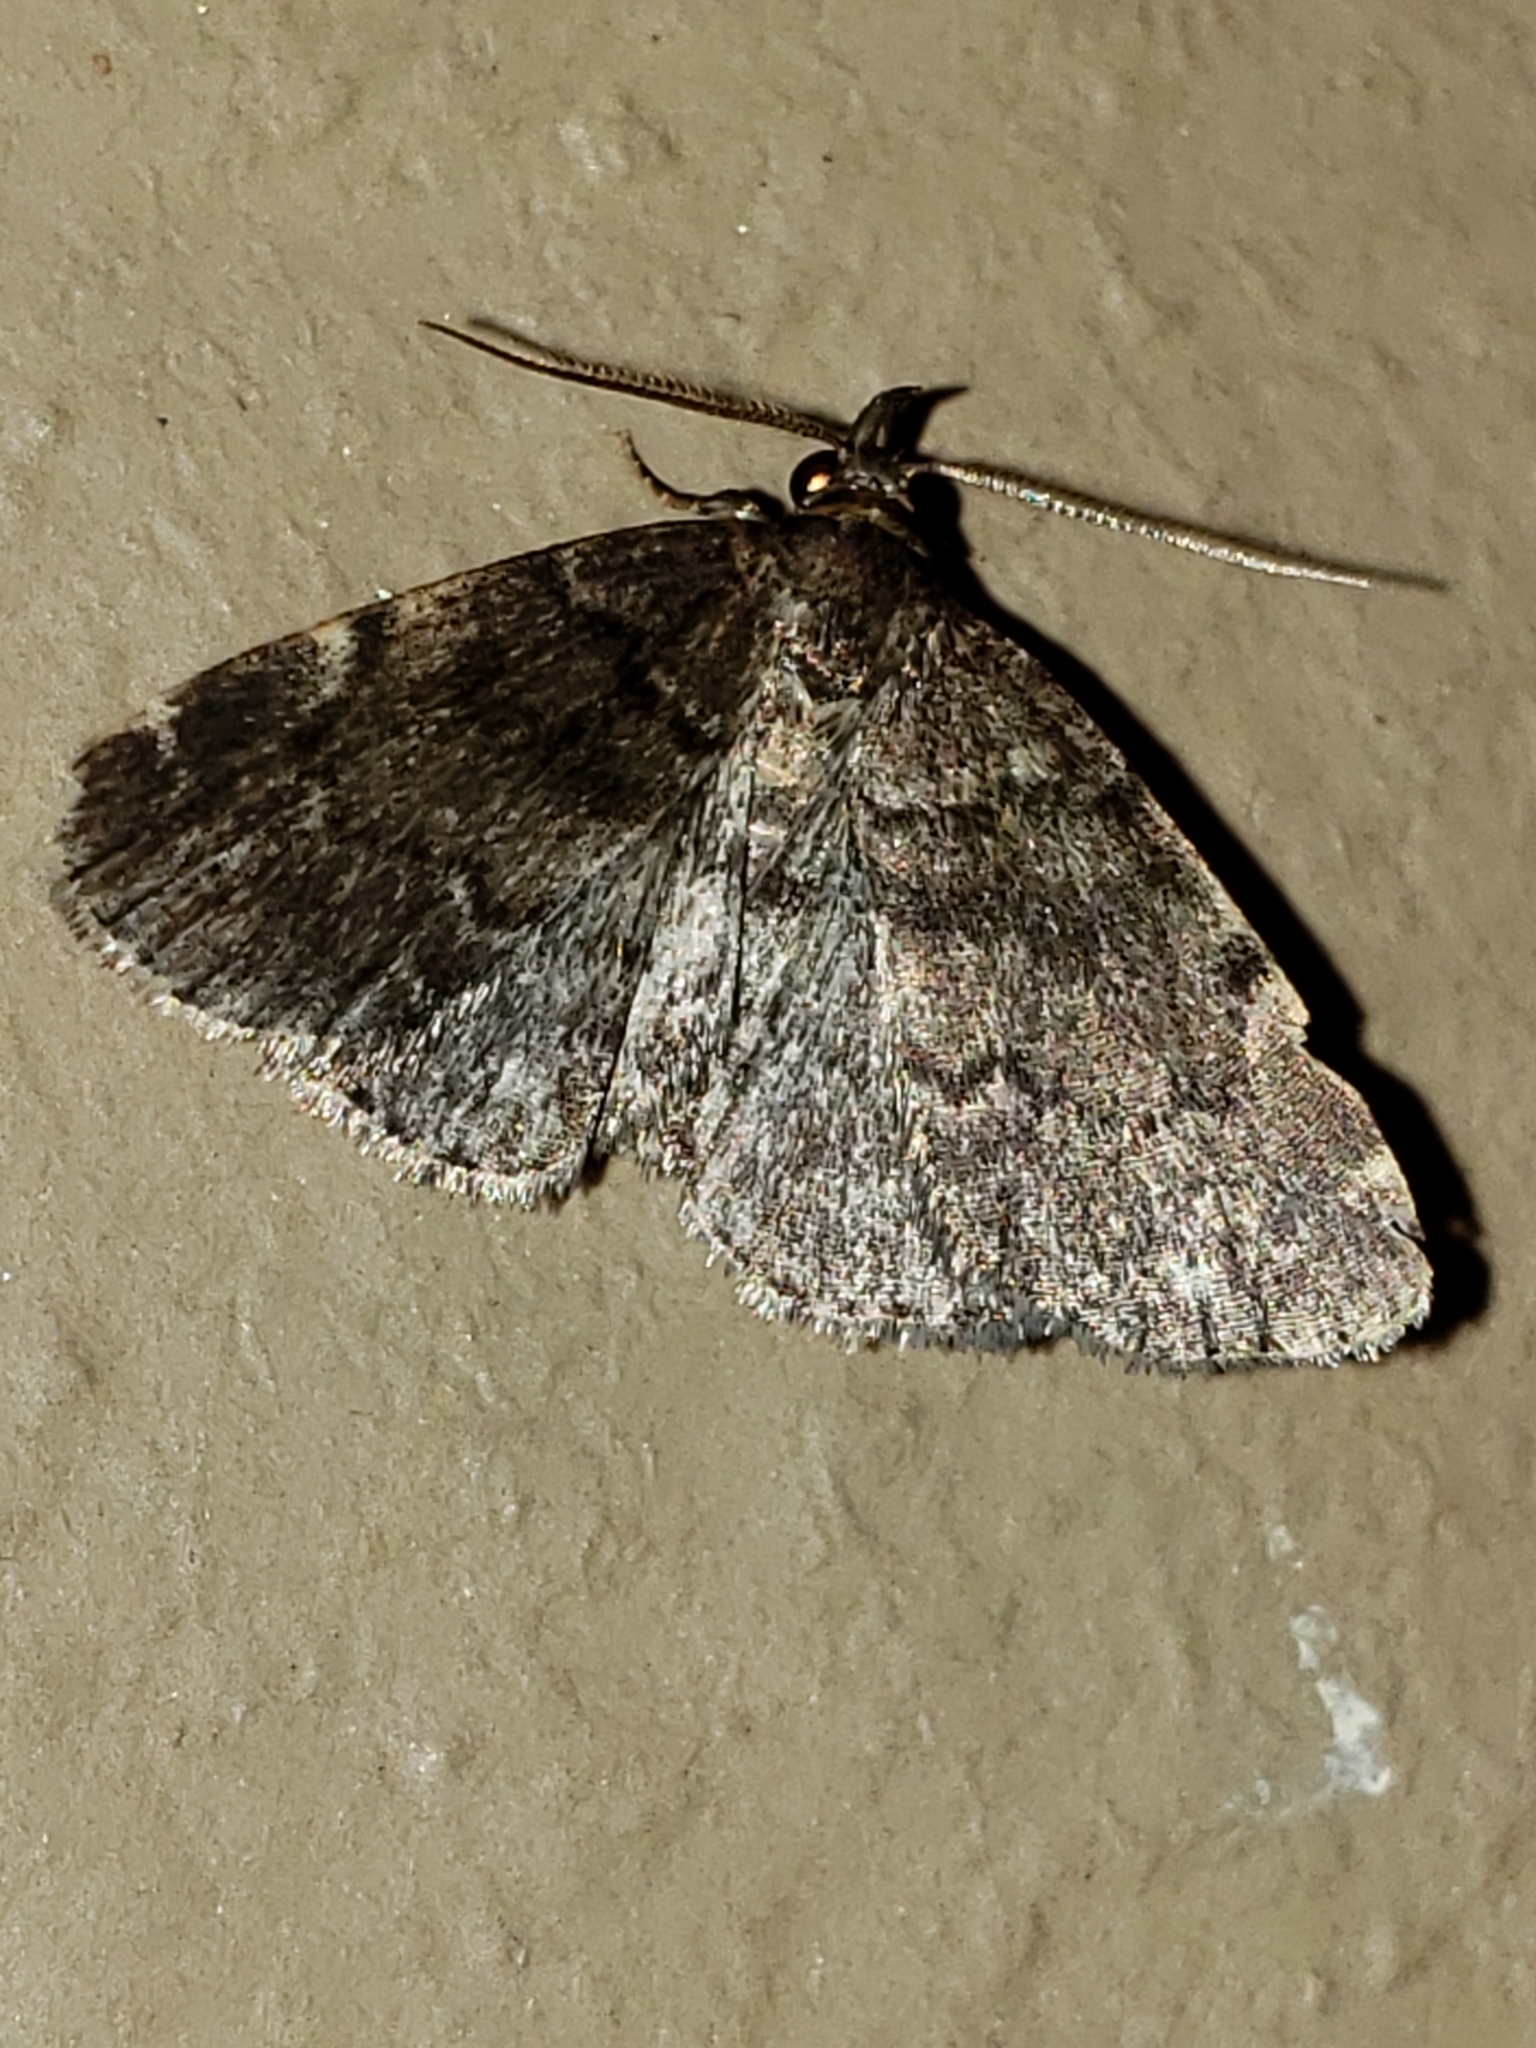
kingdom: Animalia
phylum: Arthropoda
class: Insecta
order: Lepidoptera
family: Erebidae
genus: Idia
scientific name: Idia forbesii
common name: Forbes' idia moth
